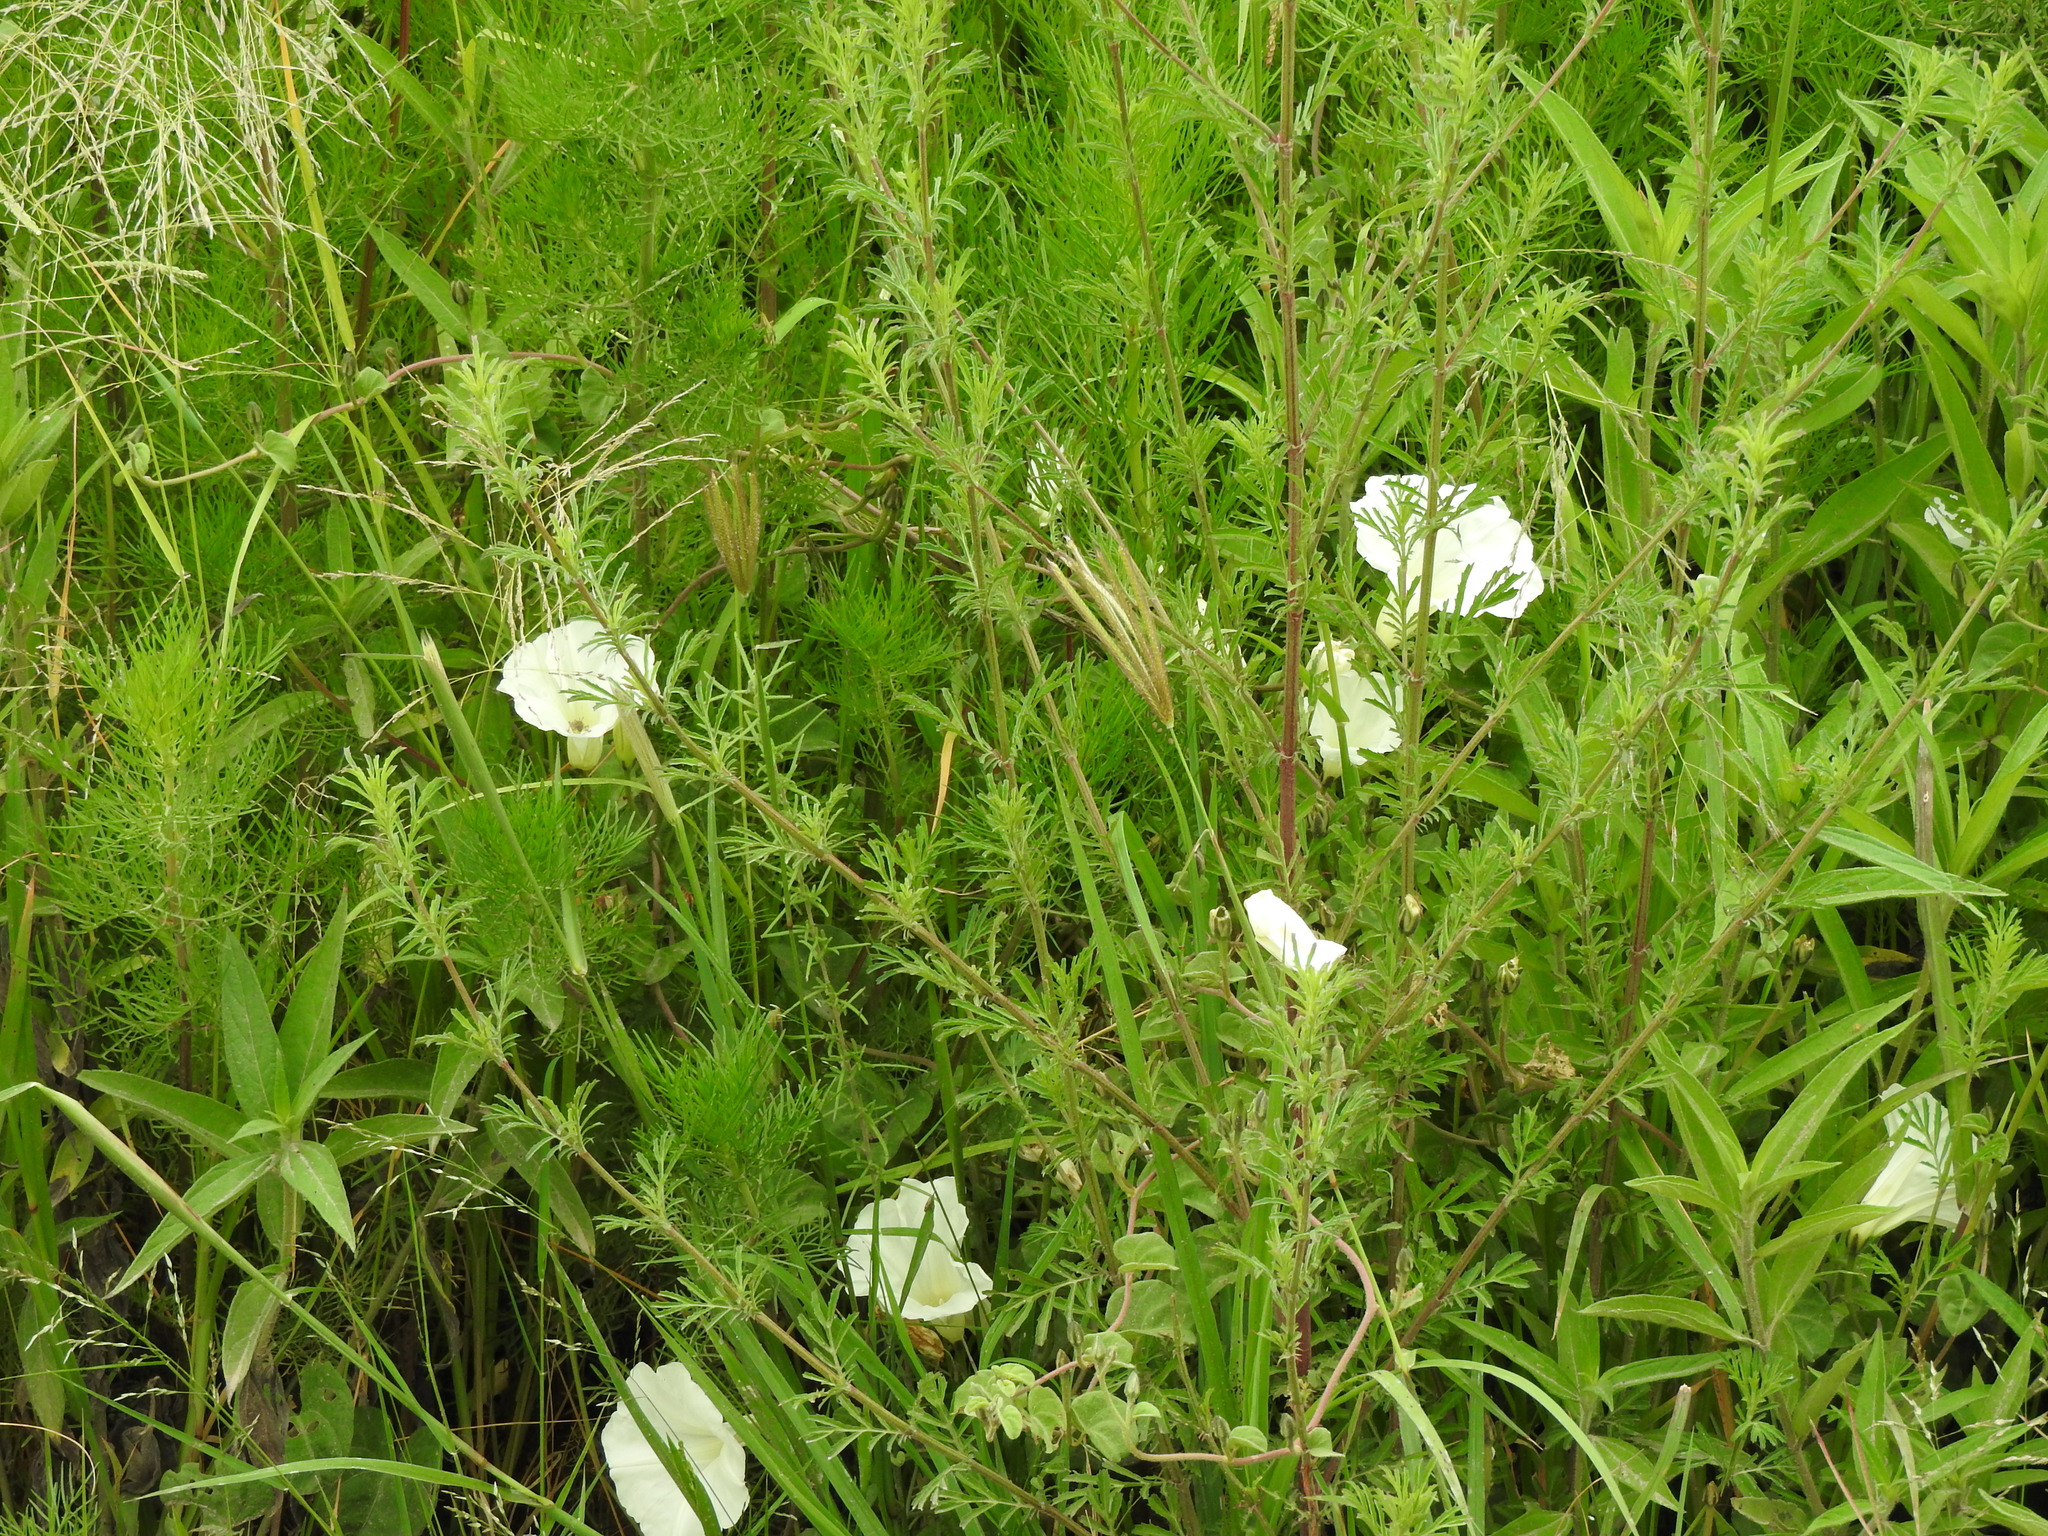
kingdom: Plantae
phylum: Tracheophyta
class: Magnoliopsida
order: Solanales
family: Convolvulaceae
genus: Ipomoea
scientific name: Ipomoea hartwegii
